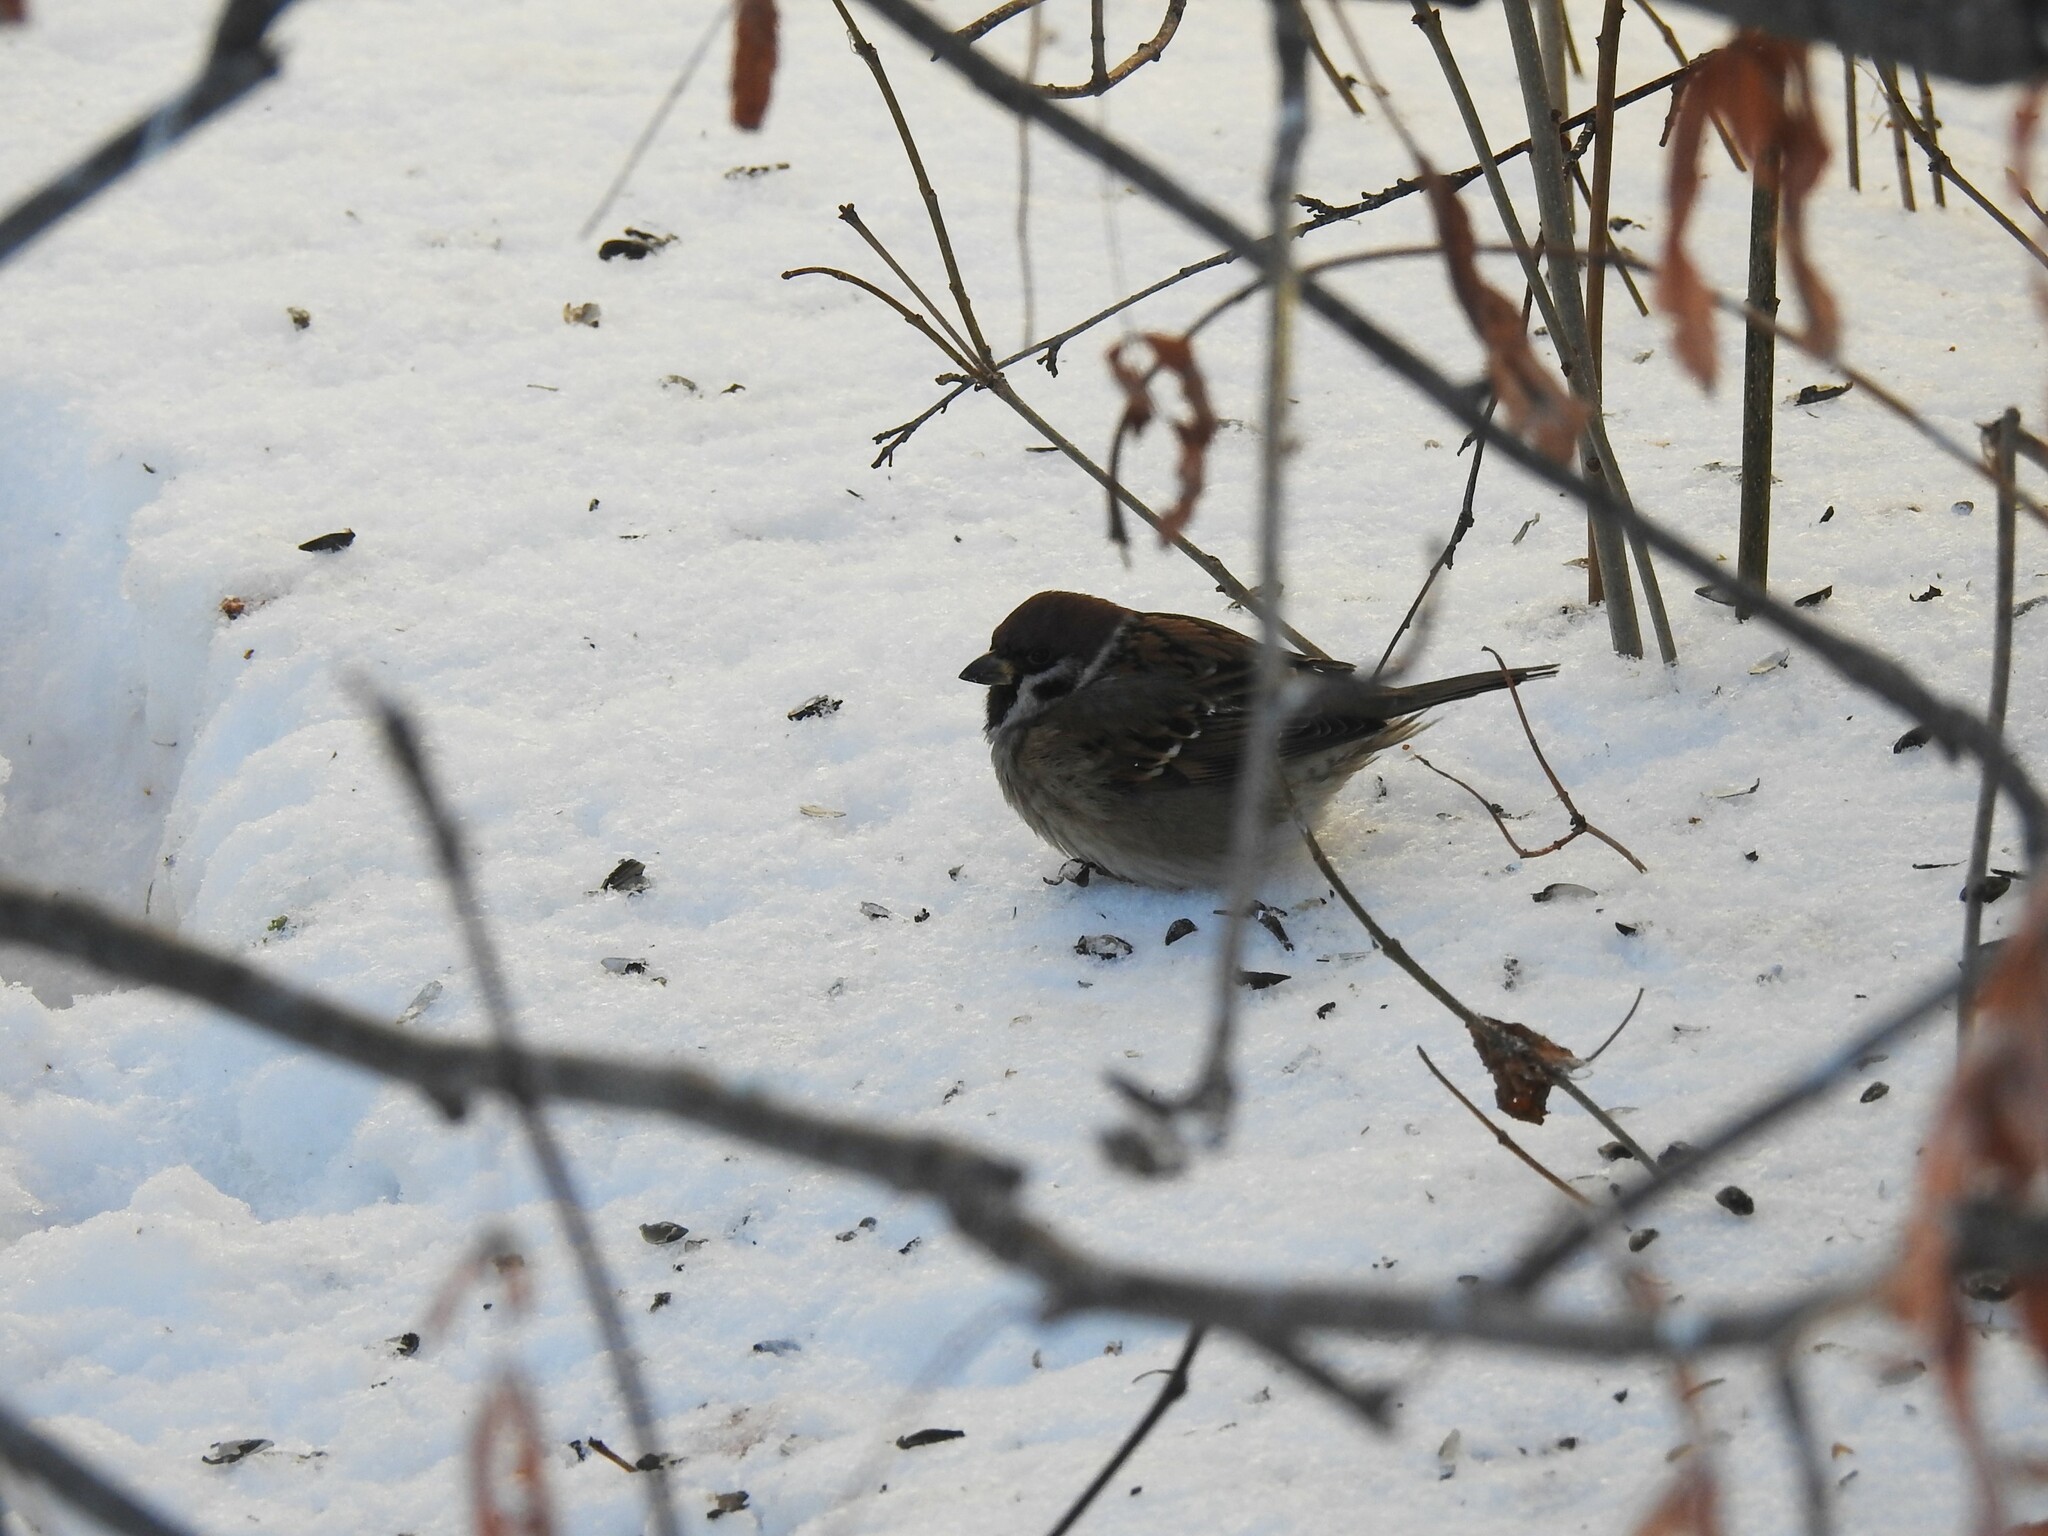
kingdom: Animalia
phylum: Chordata
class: Aves
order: Passeriformes
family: Passeridae
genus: Passer
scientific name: Passer montanus
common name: Eurasian tree sparrow
